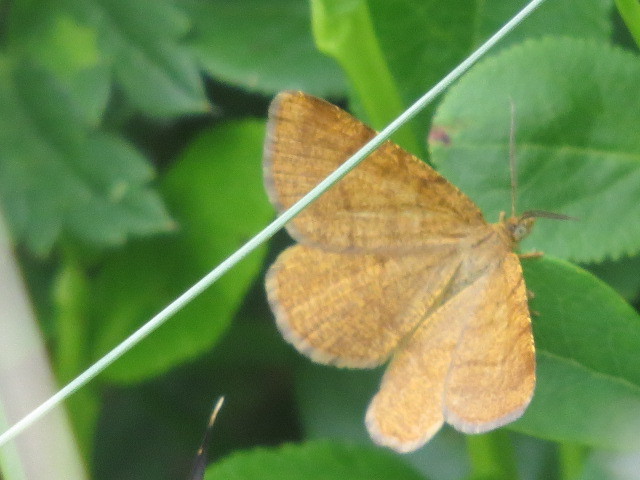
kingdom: Animalia
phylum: Arthropoda
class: Insecta
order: Lepidoptera
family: Geometridae
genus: Macaria
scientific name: Macaria brunneata
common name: Rannoch looper
